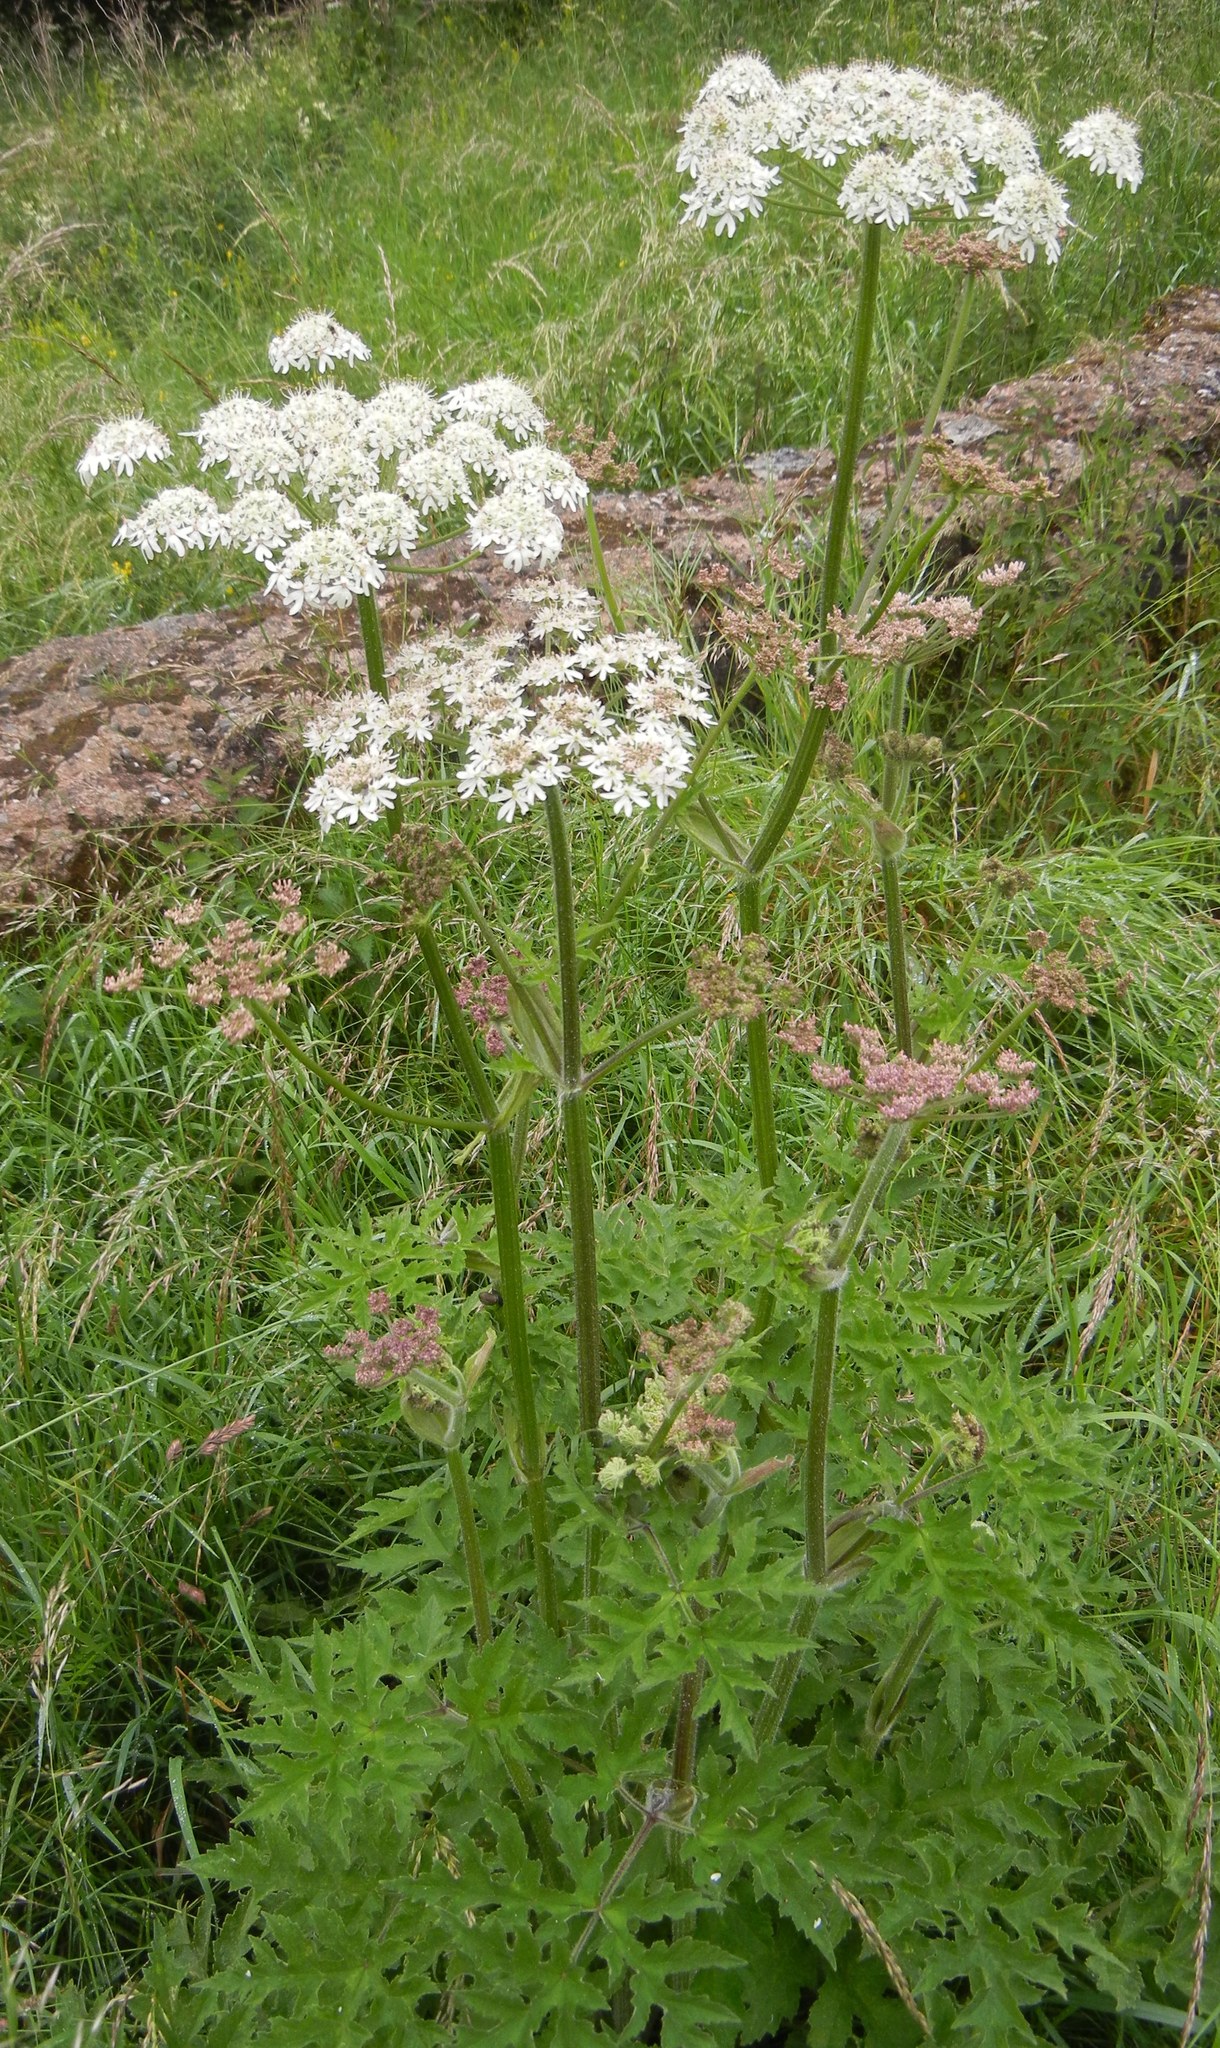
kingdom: Plantae
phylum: Tracheophyta
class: Magnoliopsida
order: Apiales
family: Apiaceae
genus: Heracleum
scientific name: Heracleum sphondylium
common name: Hogweed
